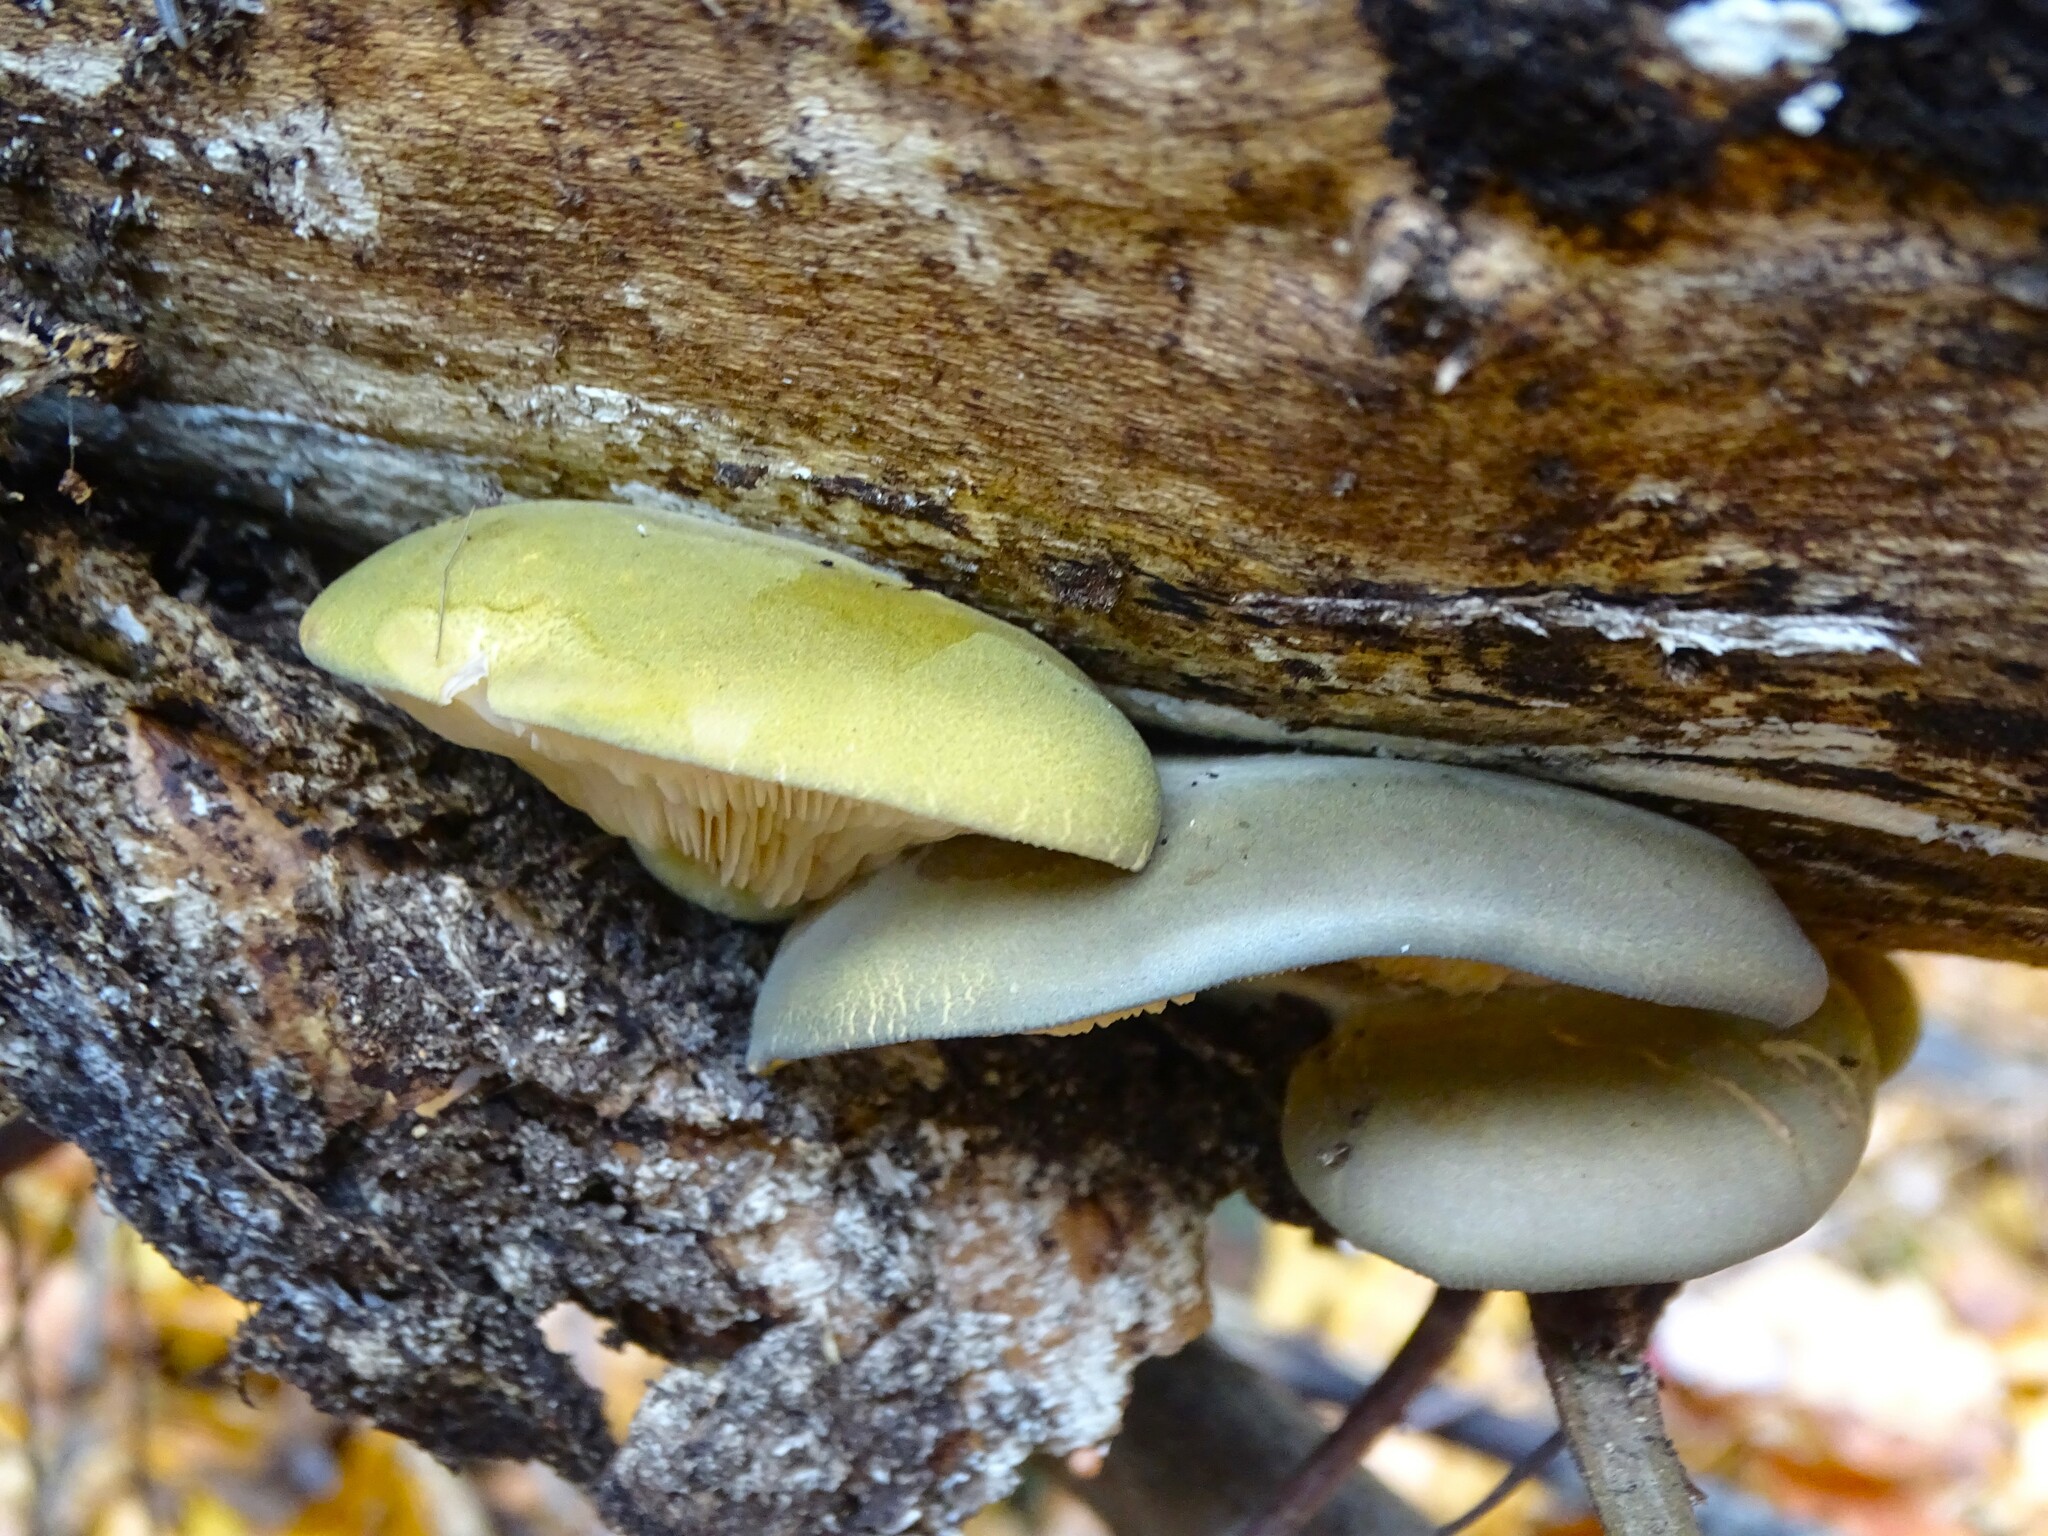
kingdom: Fungi
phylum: Basidiomycota
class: Agaricomycetes
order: Agaricales
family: Sarcomyxaceae
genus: Sarcomyxa
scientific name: Sarcomyxa serotina
